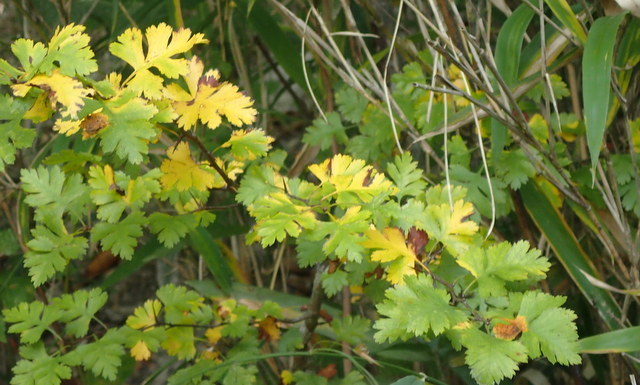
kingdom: Plantae
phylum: Tracheophyta
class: Magnoliopsida
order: Rosales
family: Rosaceae
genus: Crataegus
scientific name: Crataegus marshallii
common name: Parsley-hawthorn
